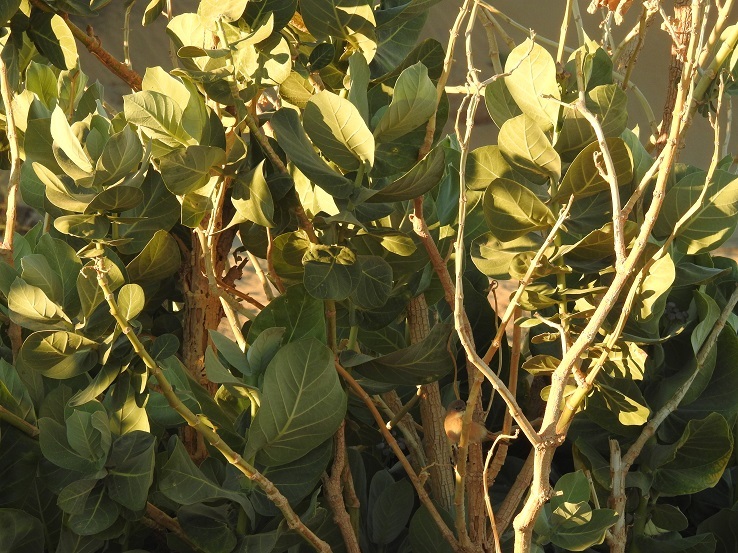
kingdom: Plantae
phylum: Tracheophyta
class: Magnoliopsida
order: Gentianales
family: Apocynaceae
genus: Calotropis
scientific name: Calotropis procera
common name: Roostertree
